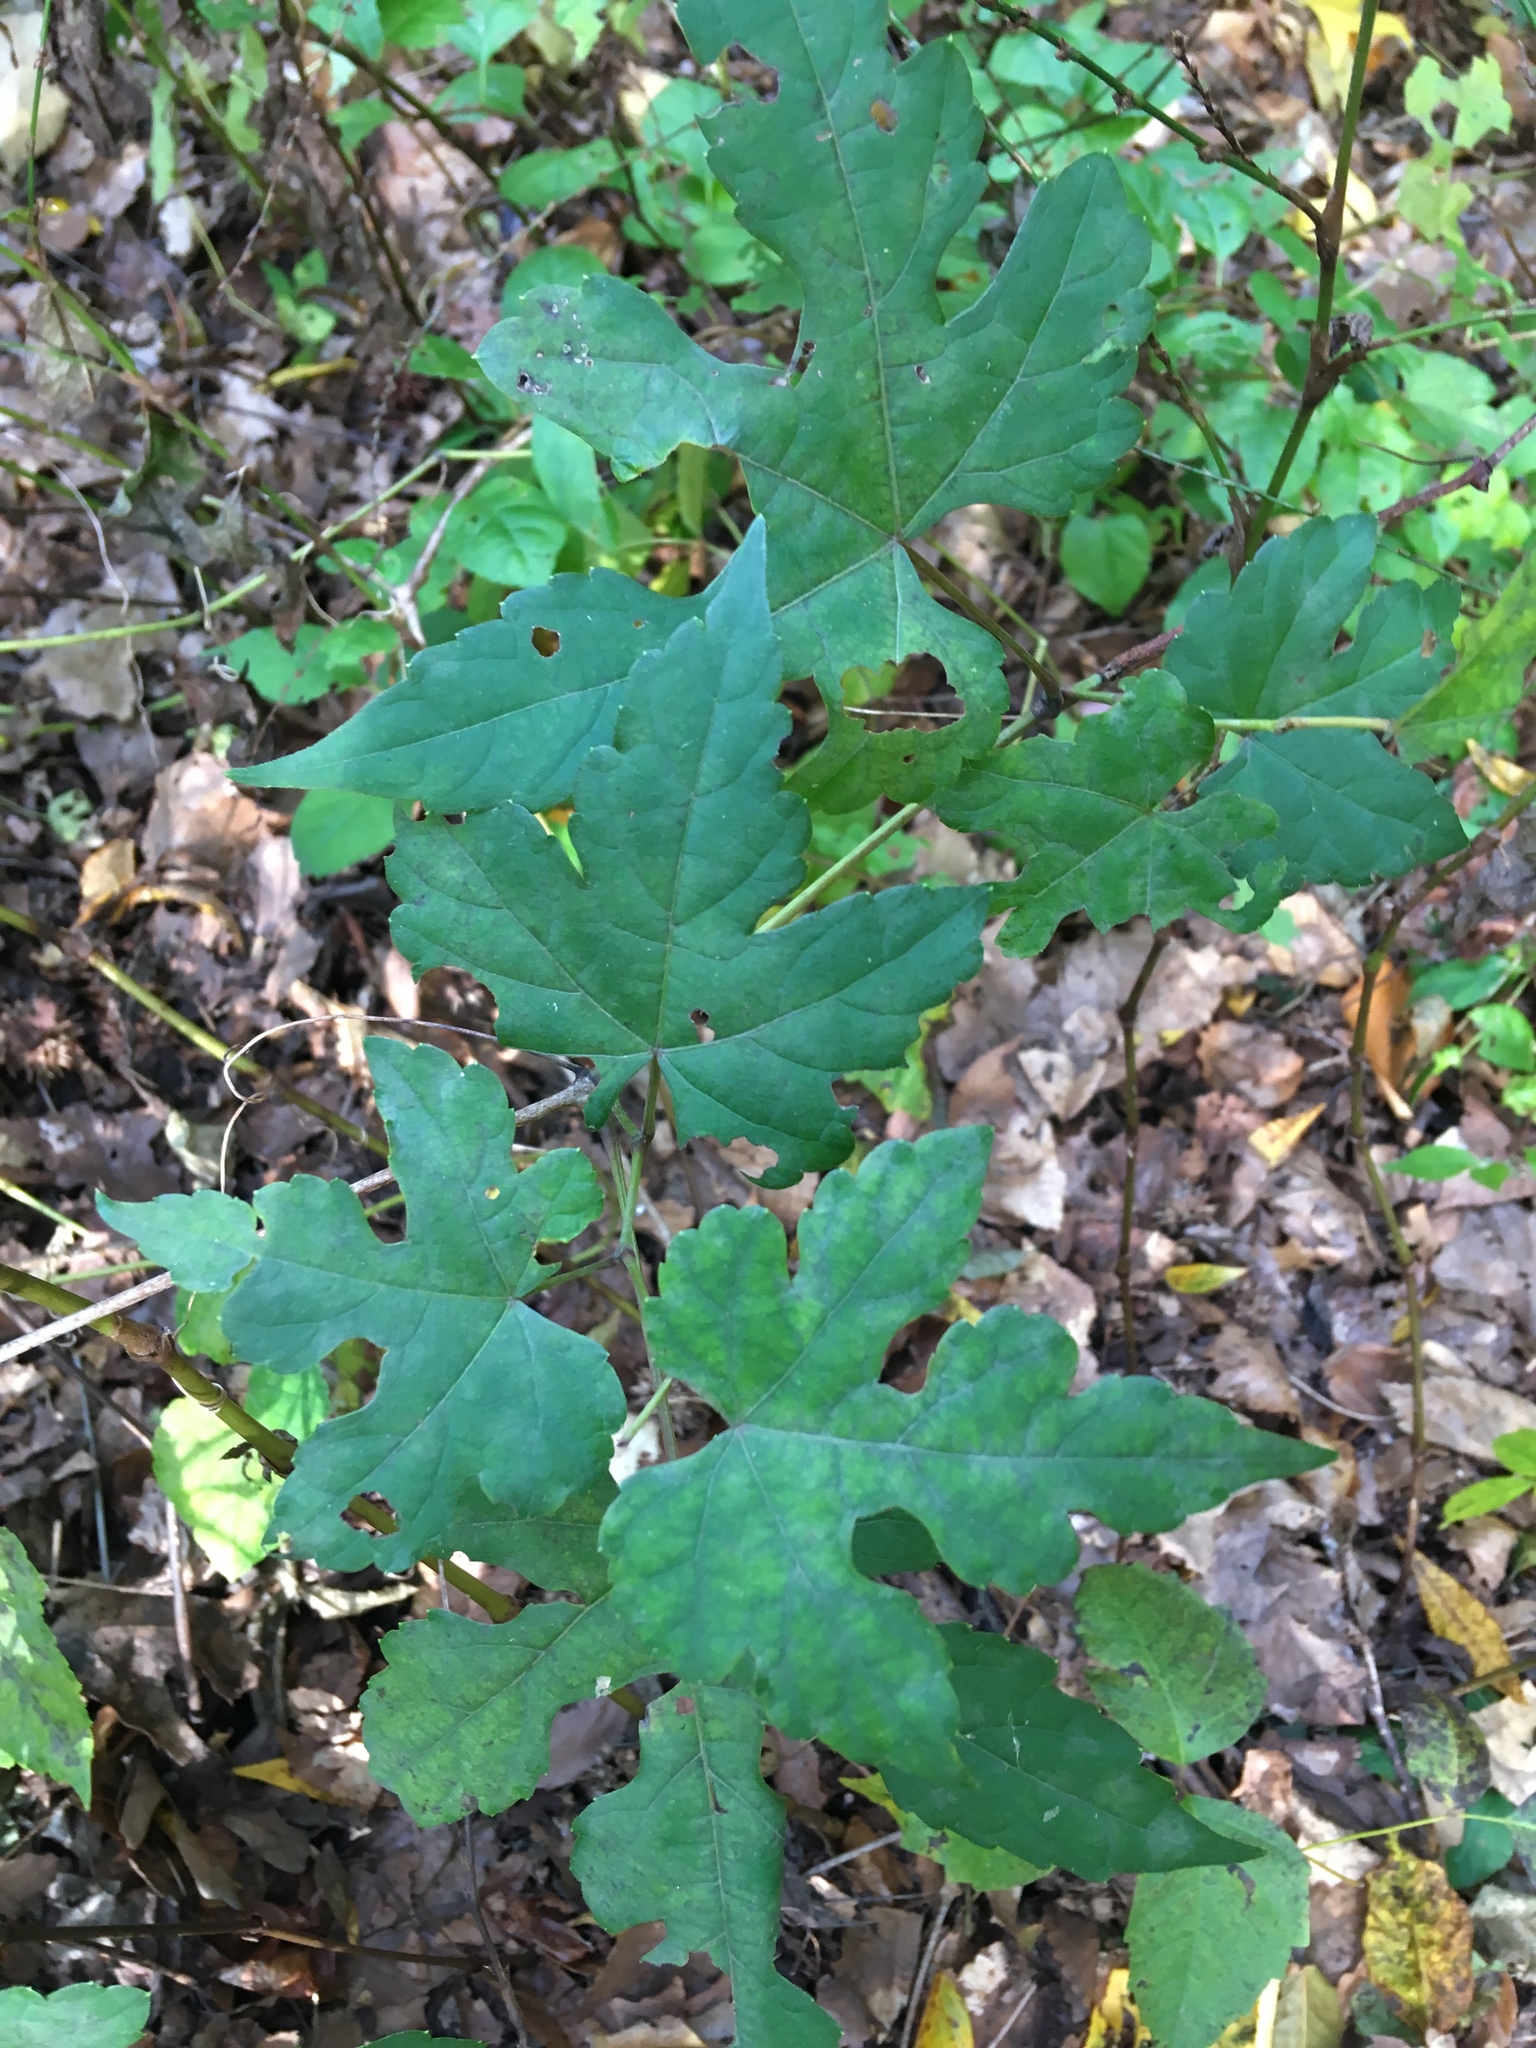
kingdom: Plantae
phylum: Tracheophyta
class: Magnoliopsida
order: Vitales
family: Vitaceae
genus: Ampelopsis
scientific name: Ampelopsis glandulosa
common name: Amur peppervine
